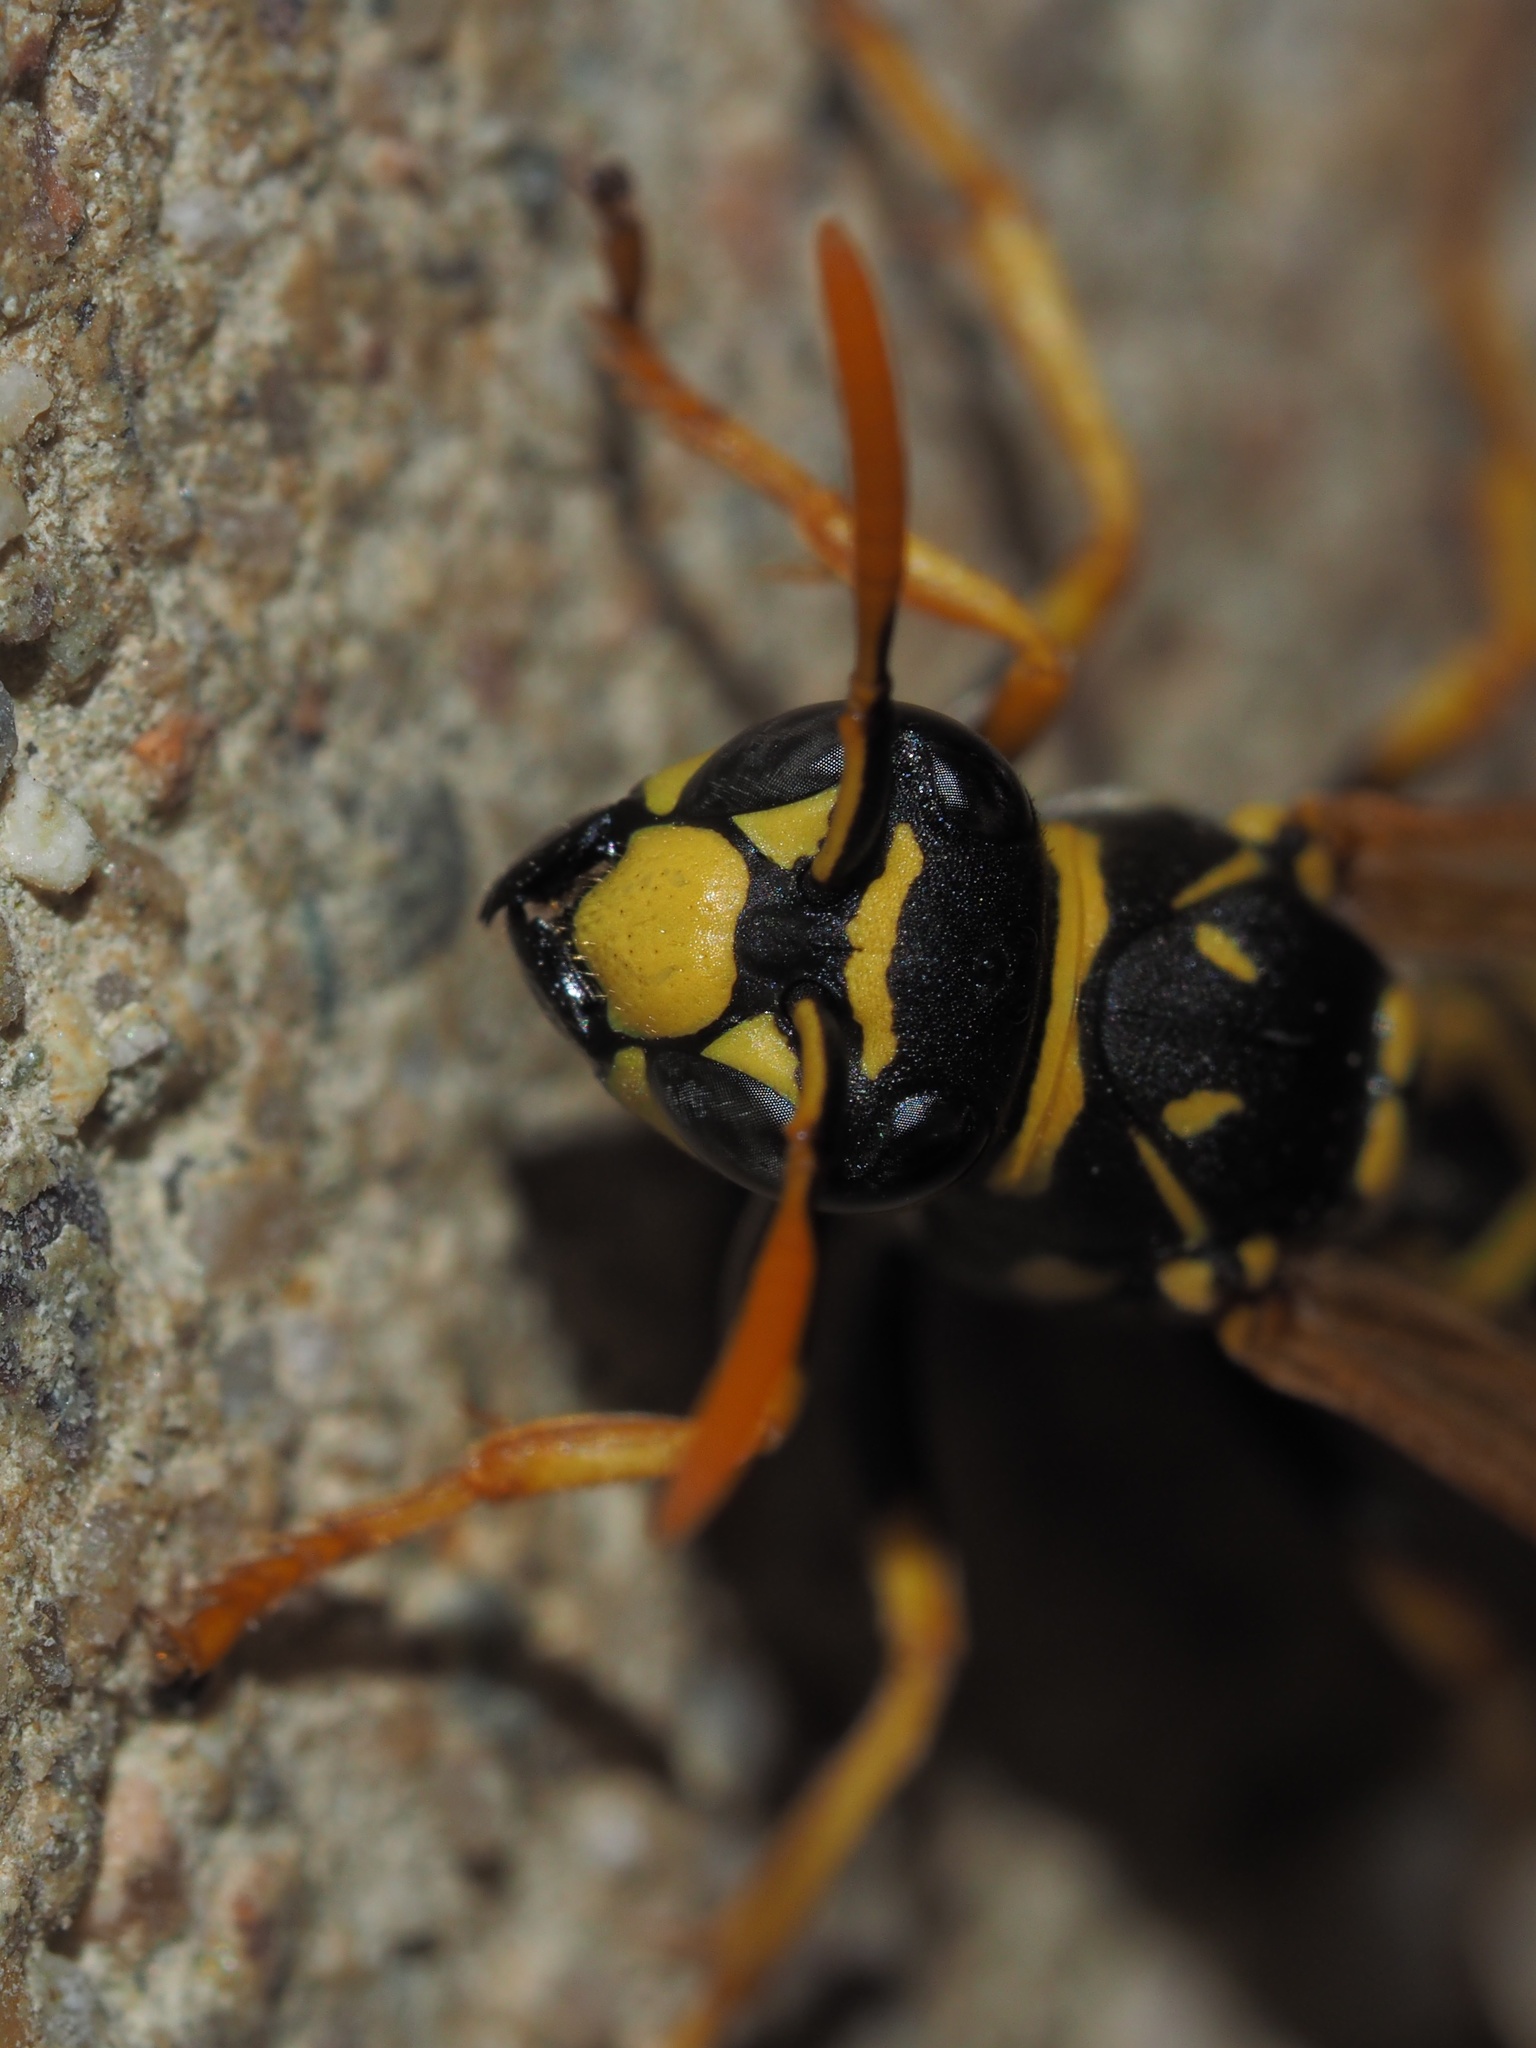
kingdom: Animalia
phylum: Arthropoda
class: Insecta
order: Hymenoptera
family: Eumenidae
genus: Polistes
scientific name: Polistes dominula
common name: Paper wasp
